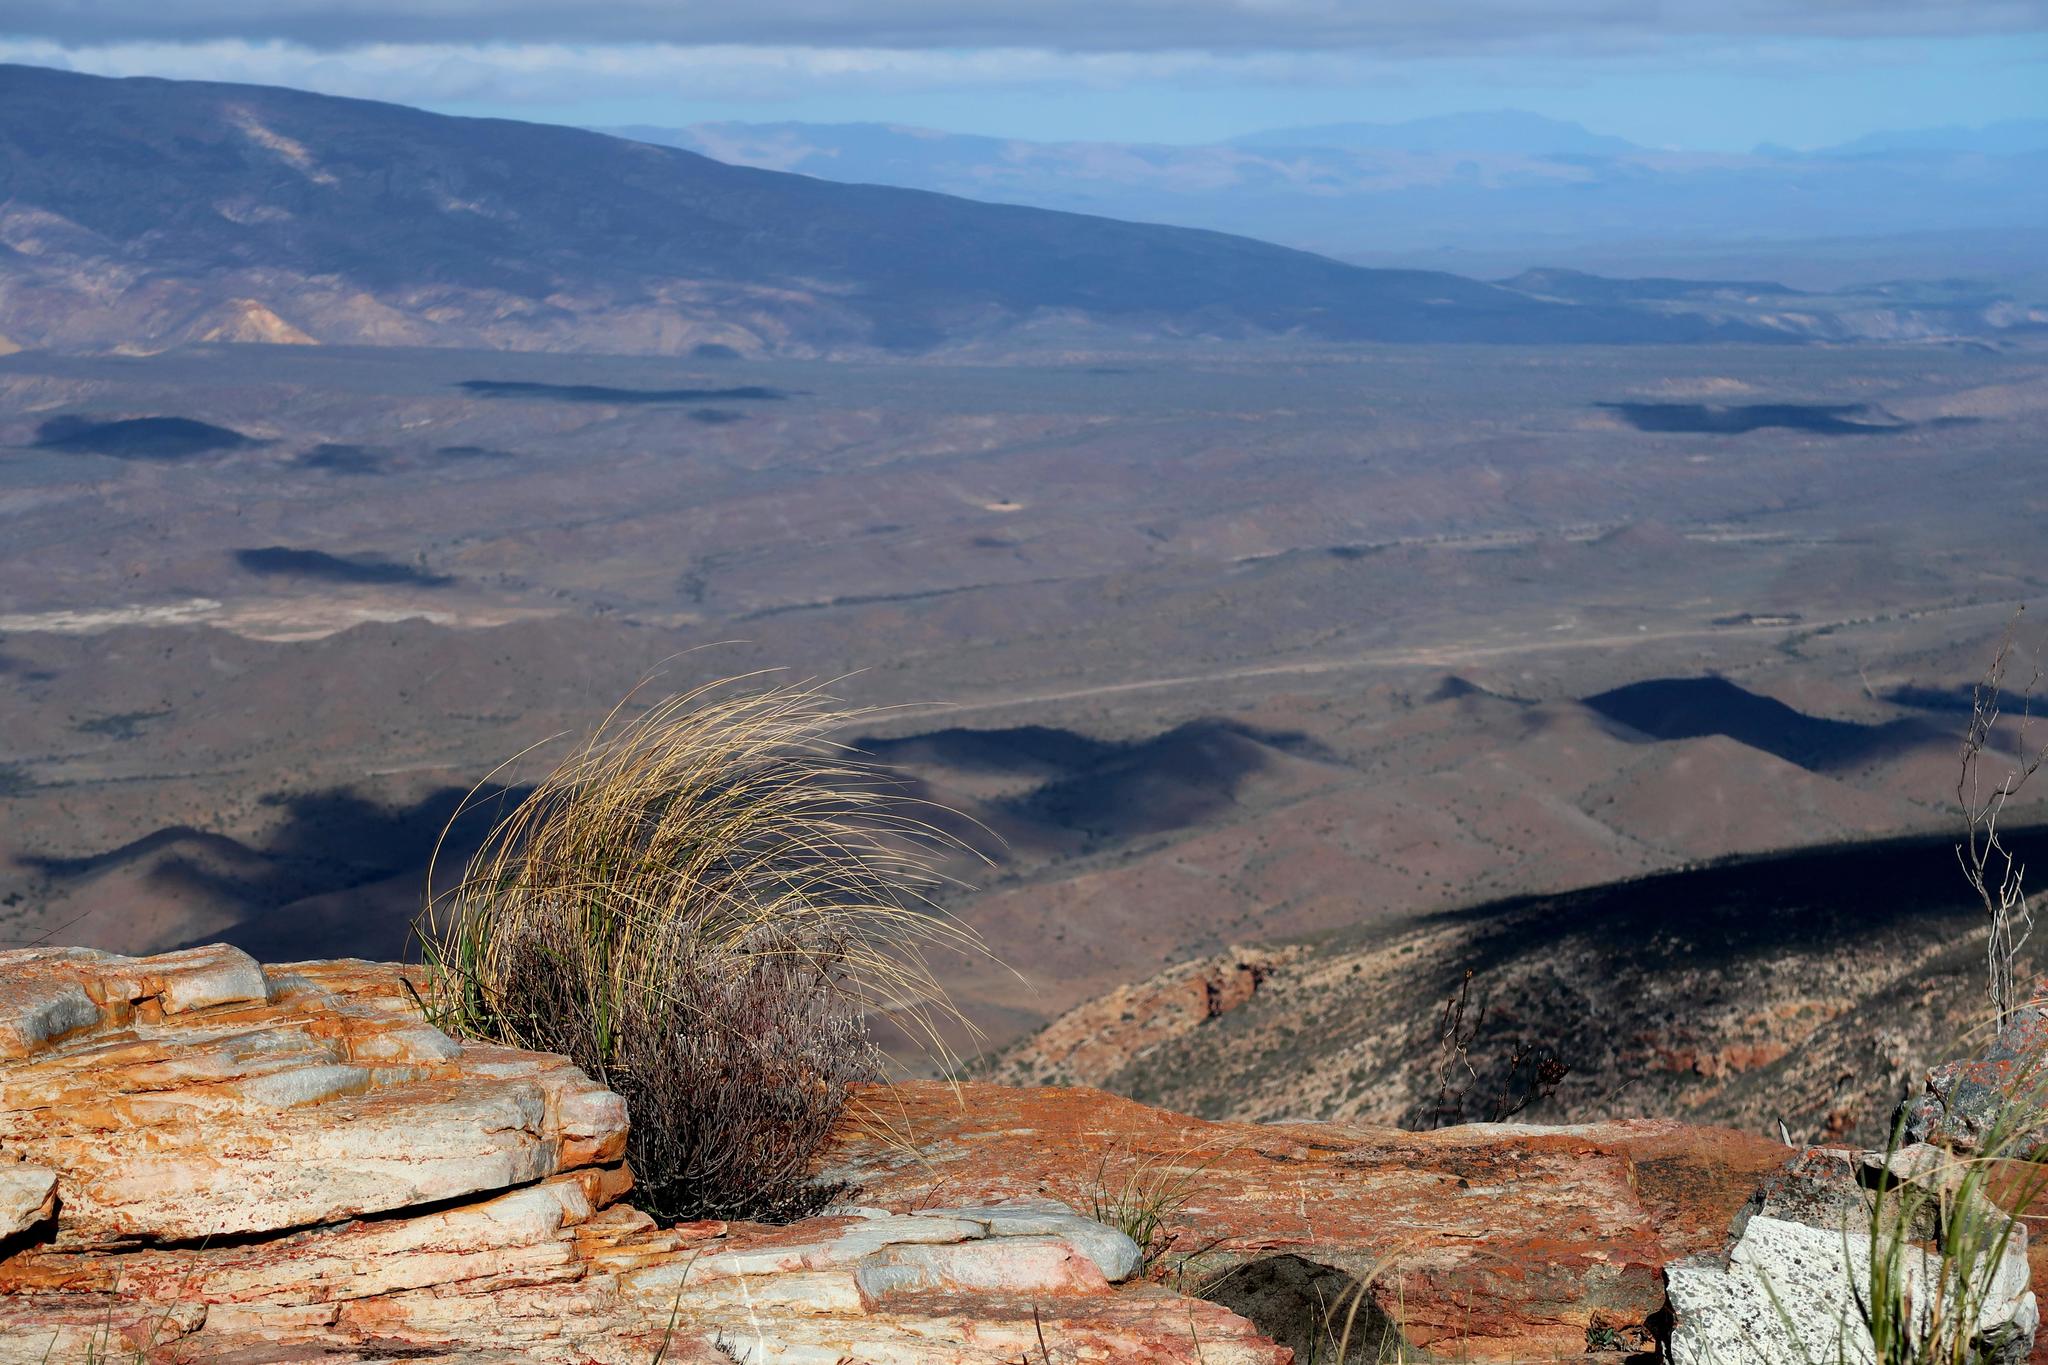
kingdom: Plantae
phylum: Tracheophyta
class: Liliopsida
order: Poales
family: Poaceae
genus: Pentameris
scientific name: Pentameris eriostoma
